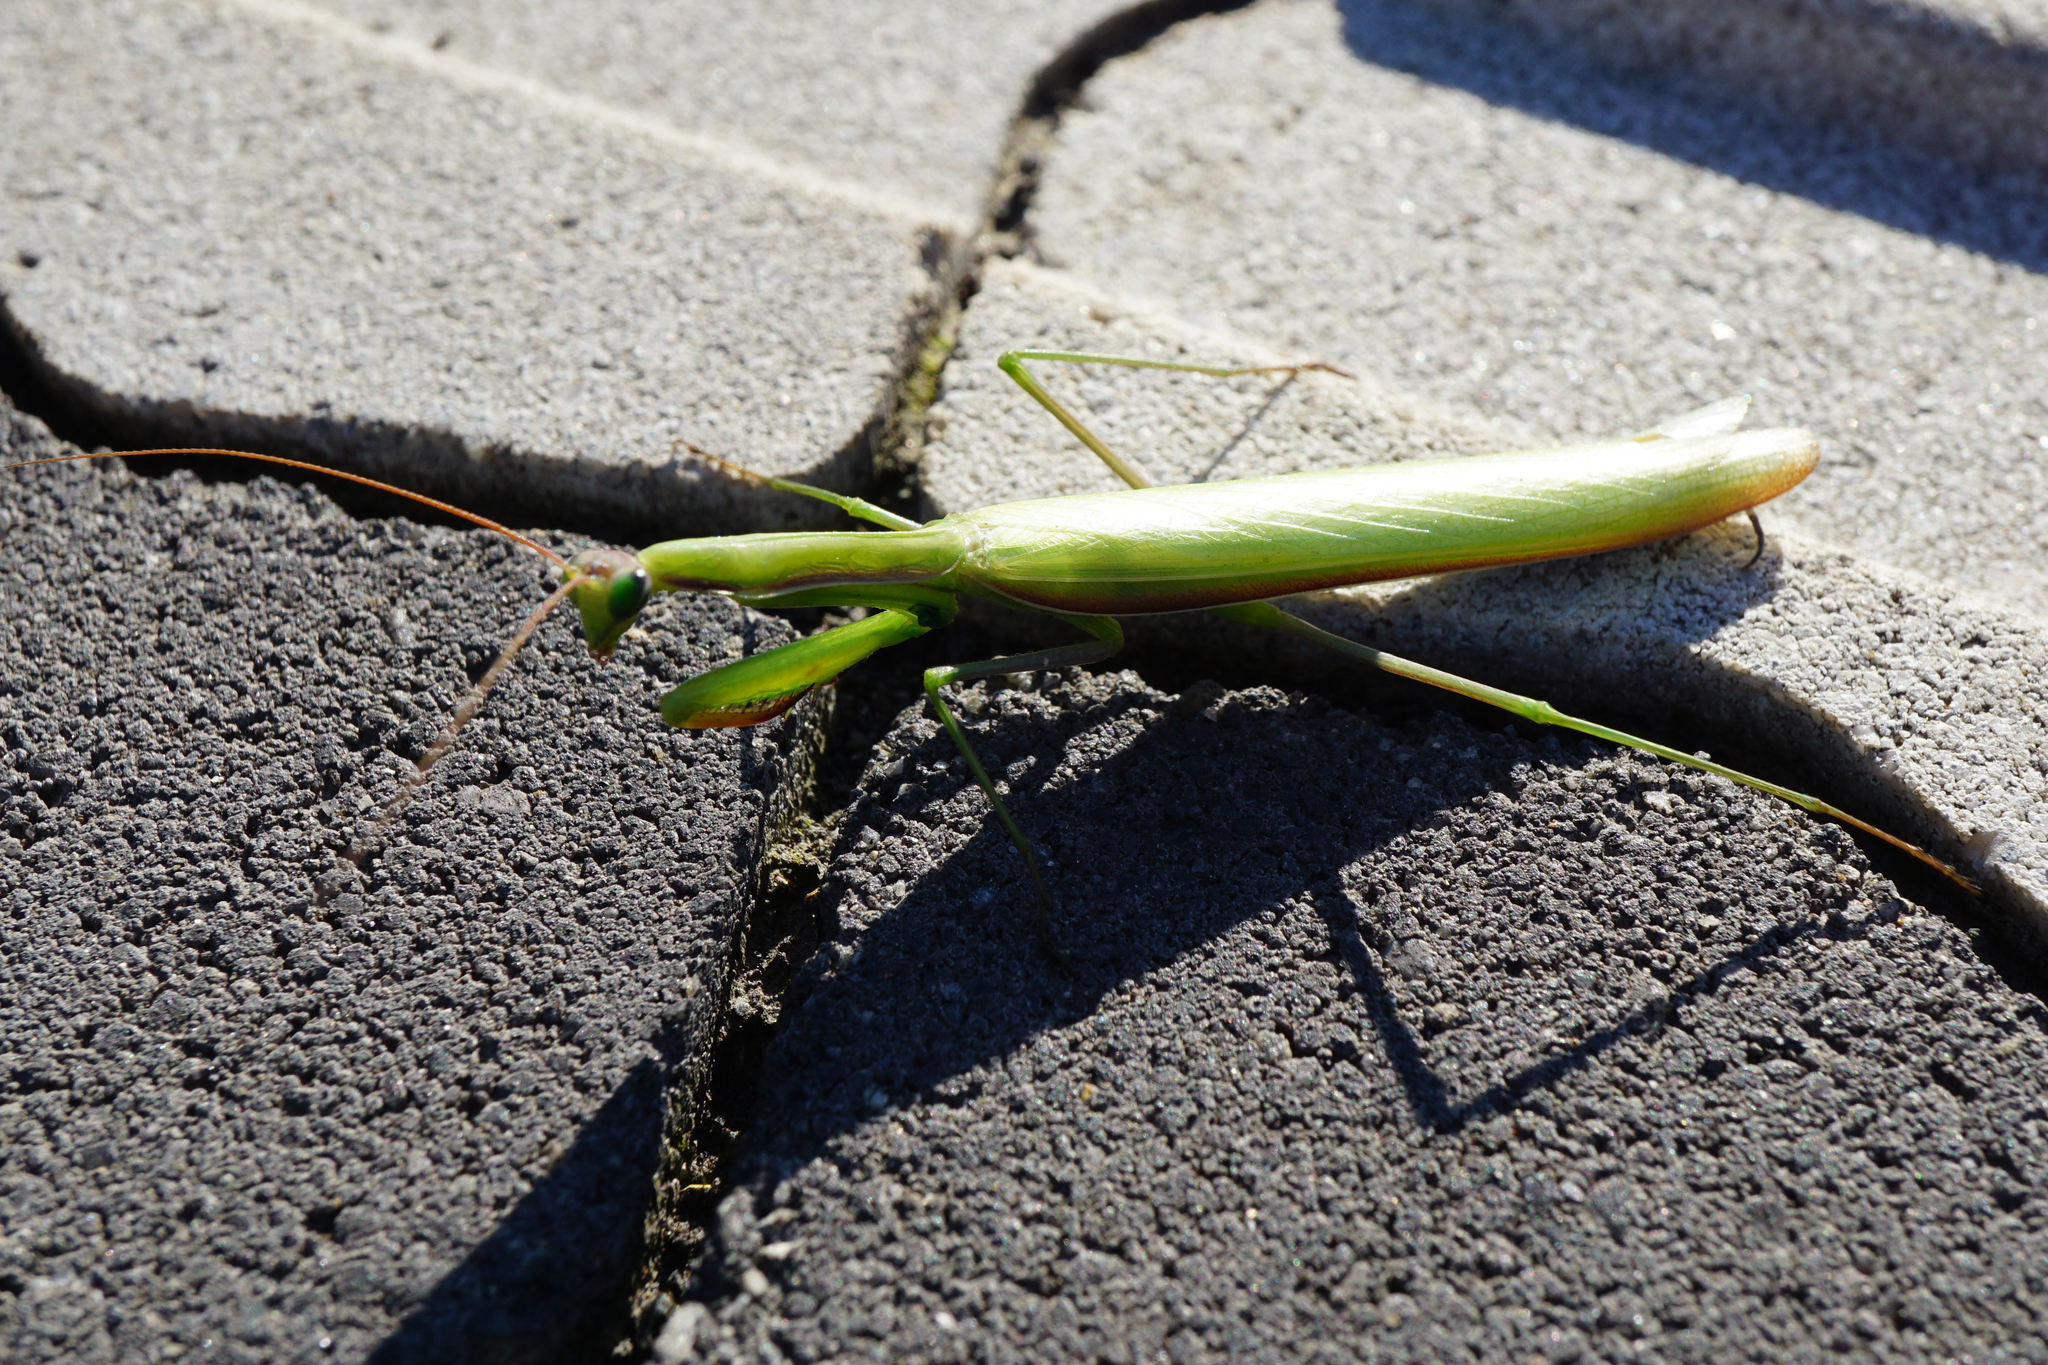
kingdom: Animalia
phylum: Arthropoda
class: Insecta
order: Mantodea
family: Mantidae
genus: Mantis
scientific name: Mantis religiosa
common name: Praying mantis
